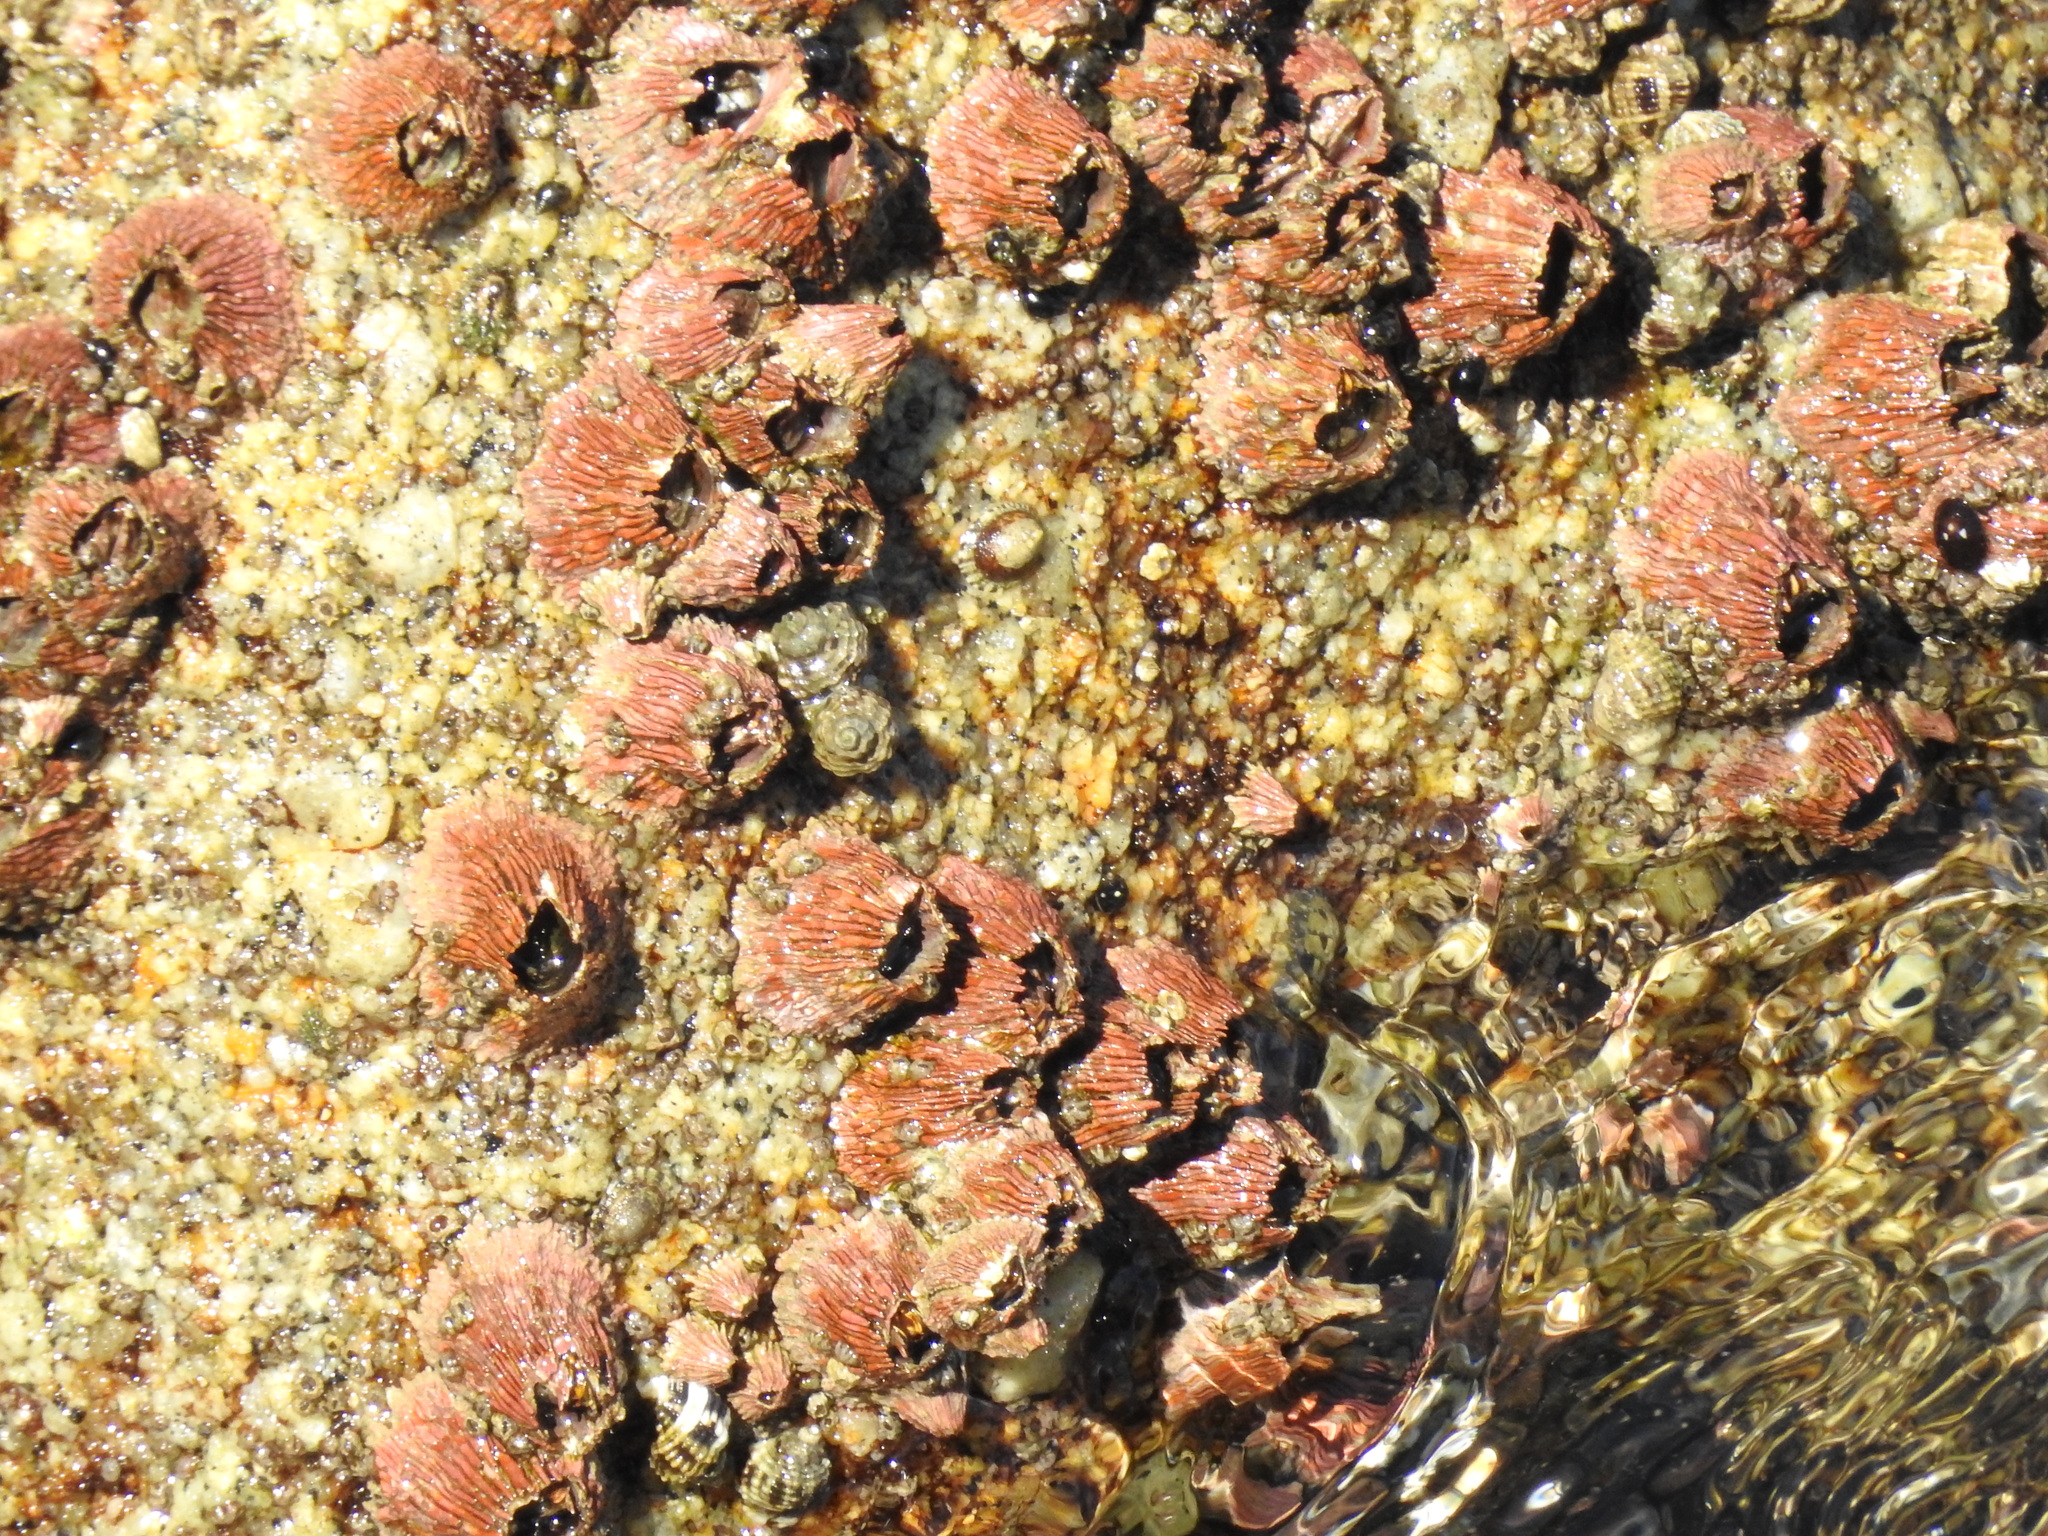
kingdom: Animalia
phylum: Arthropoda
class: Maxillopoda
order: Sessilia
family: Tetraclitidae
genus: Tetraclita
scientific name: Tetraclita rubescens
